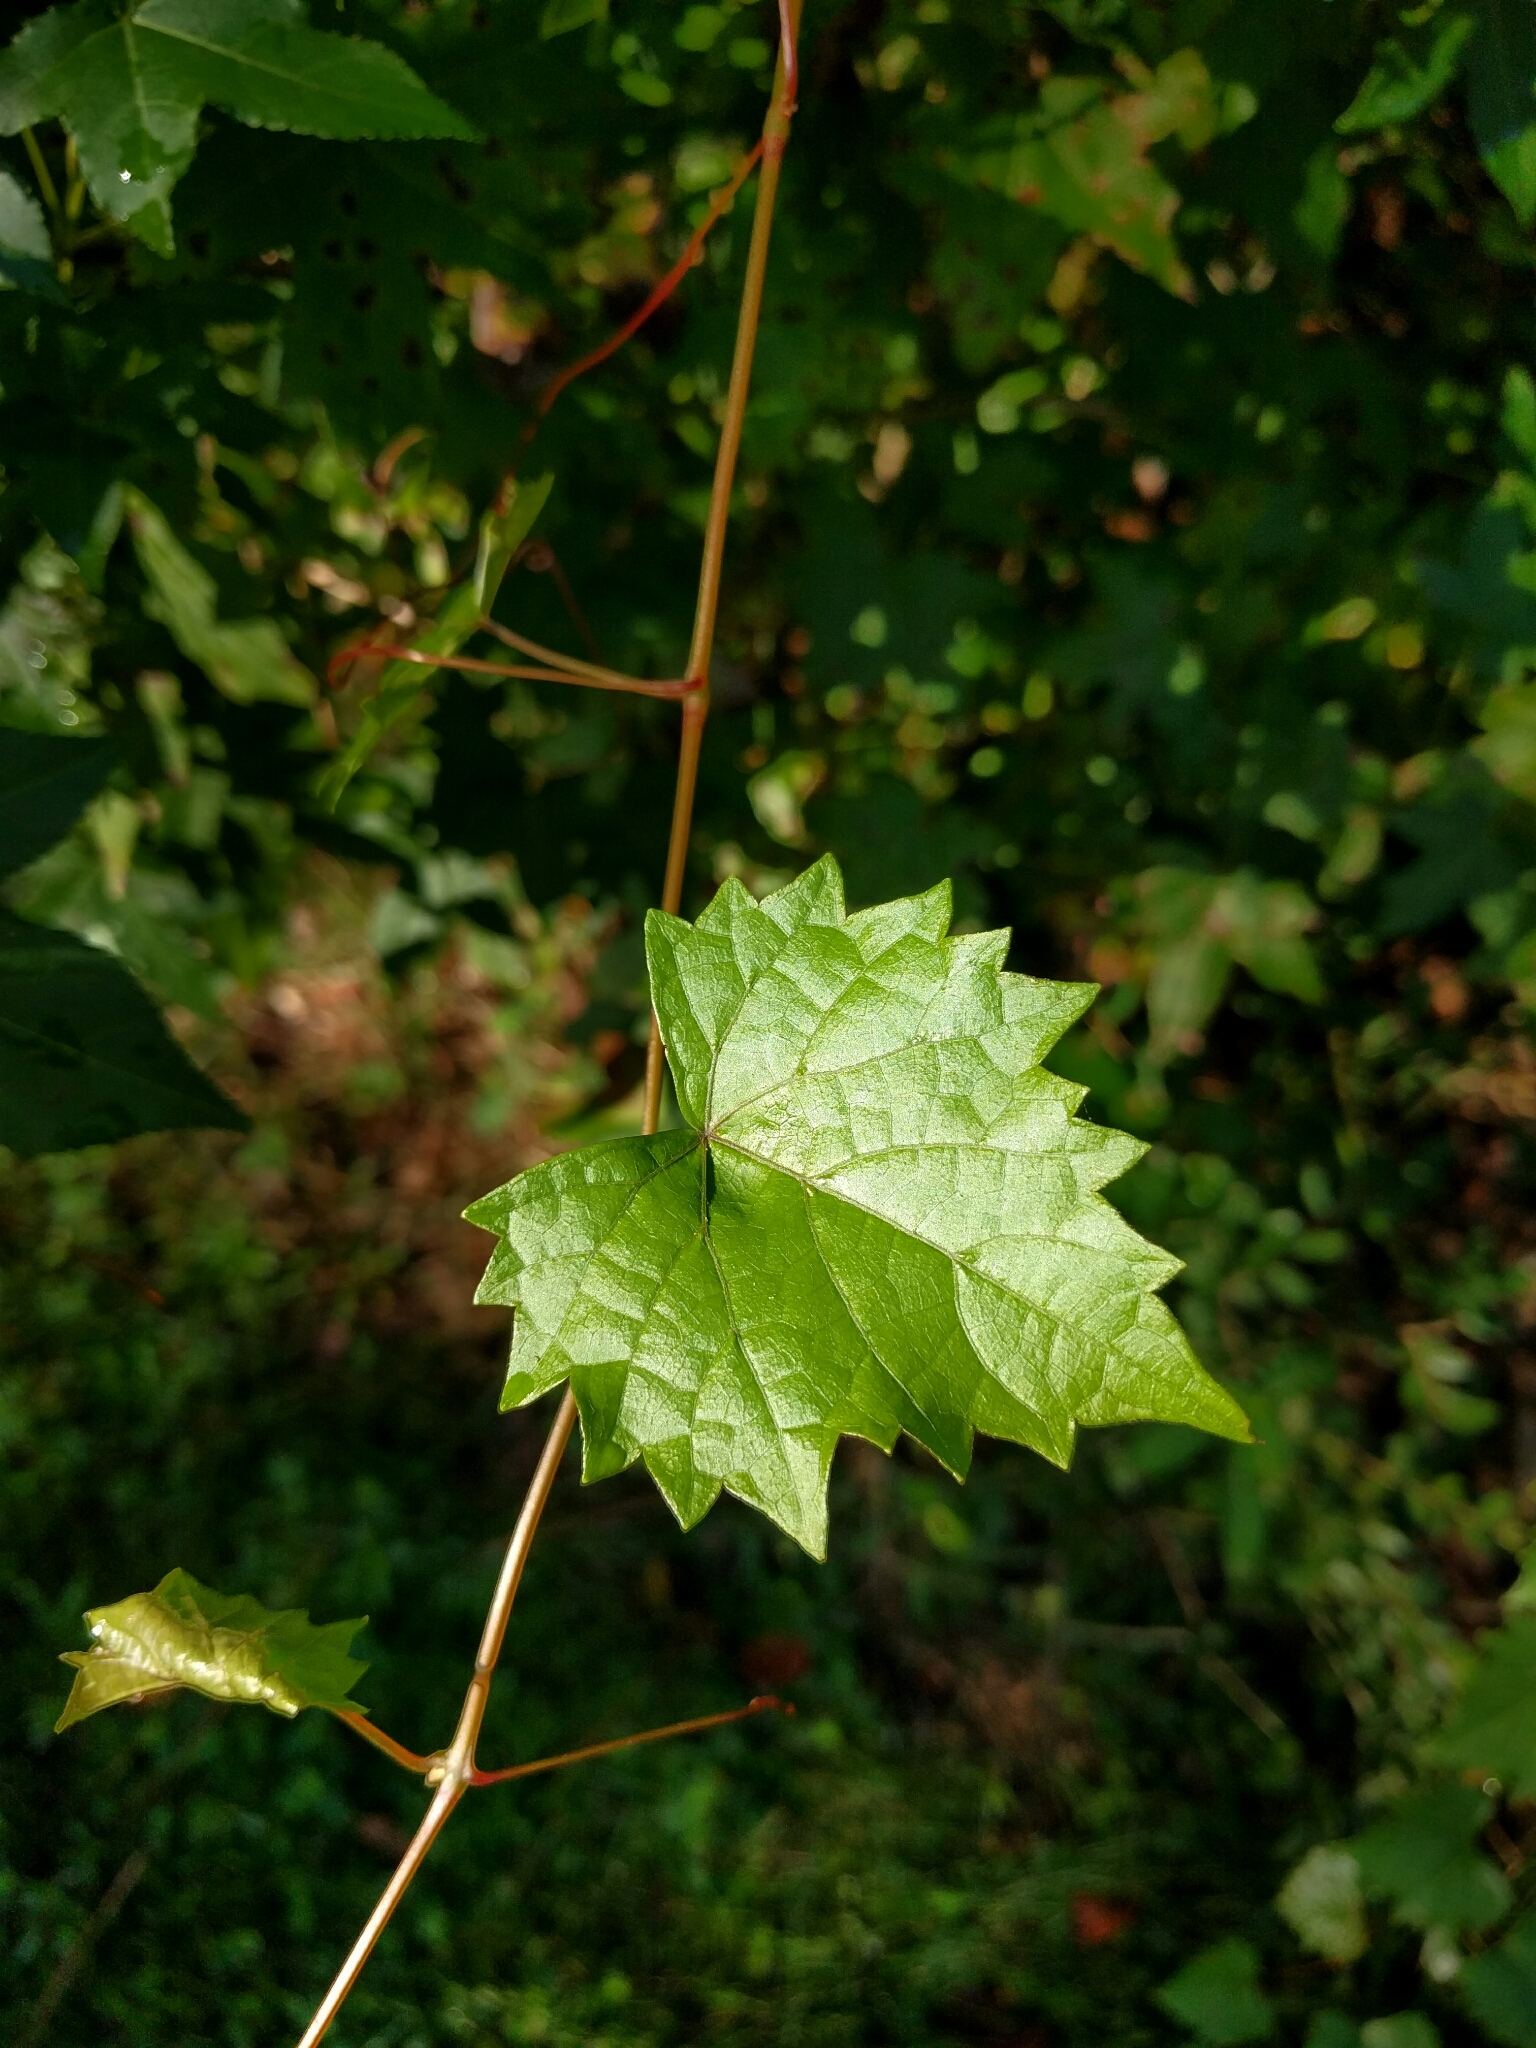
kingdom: Plantae
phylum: Tracheophyta
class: Magnoliopsida
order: Vitales
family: Vitaceae
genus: Vitis
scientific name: Vitis rotundifolia
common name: Muscadine grape
